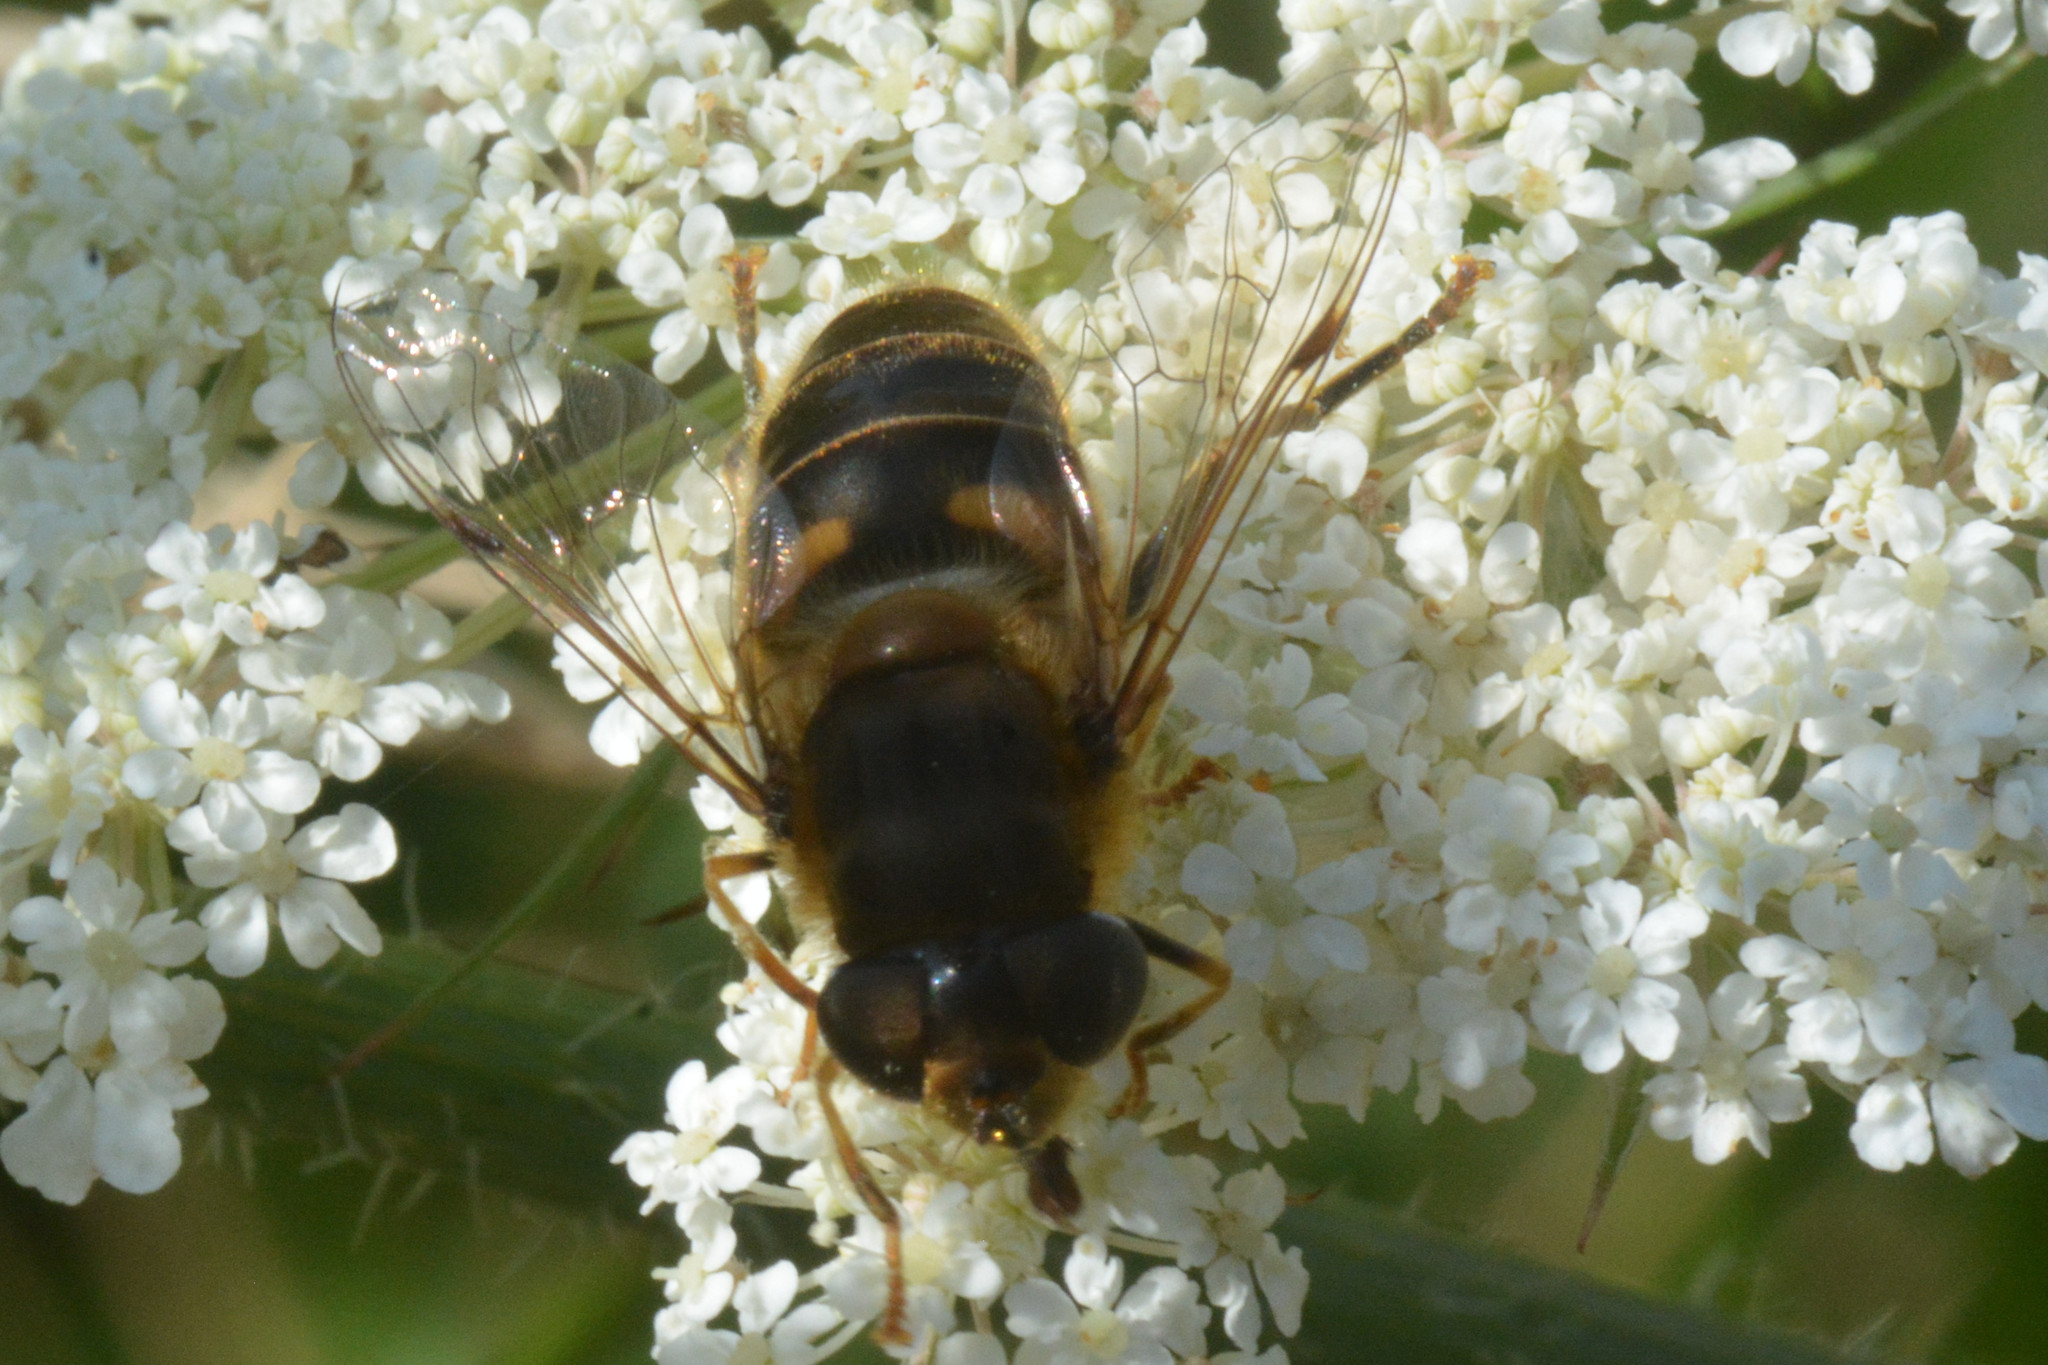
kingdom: Animalia
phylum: Arthropoda
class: Insecta
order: Diptera
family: Syrphidae
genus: Eristalis
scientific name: Eristalis pertinax
